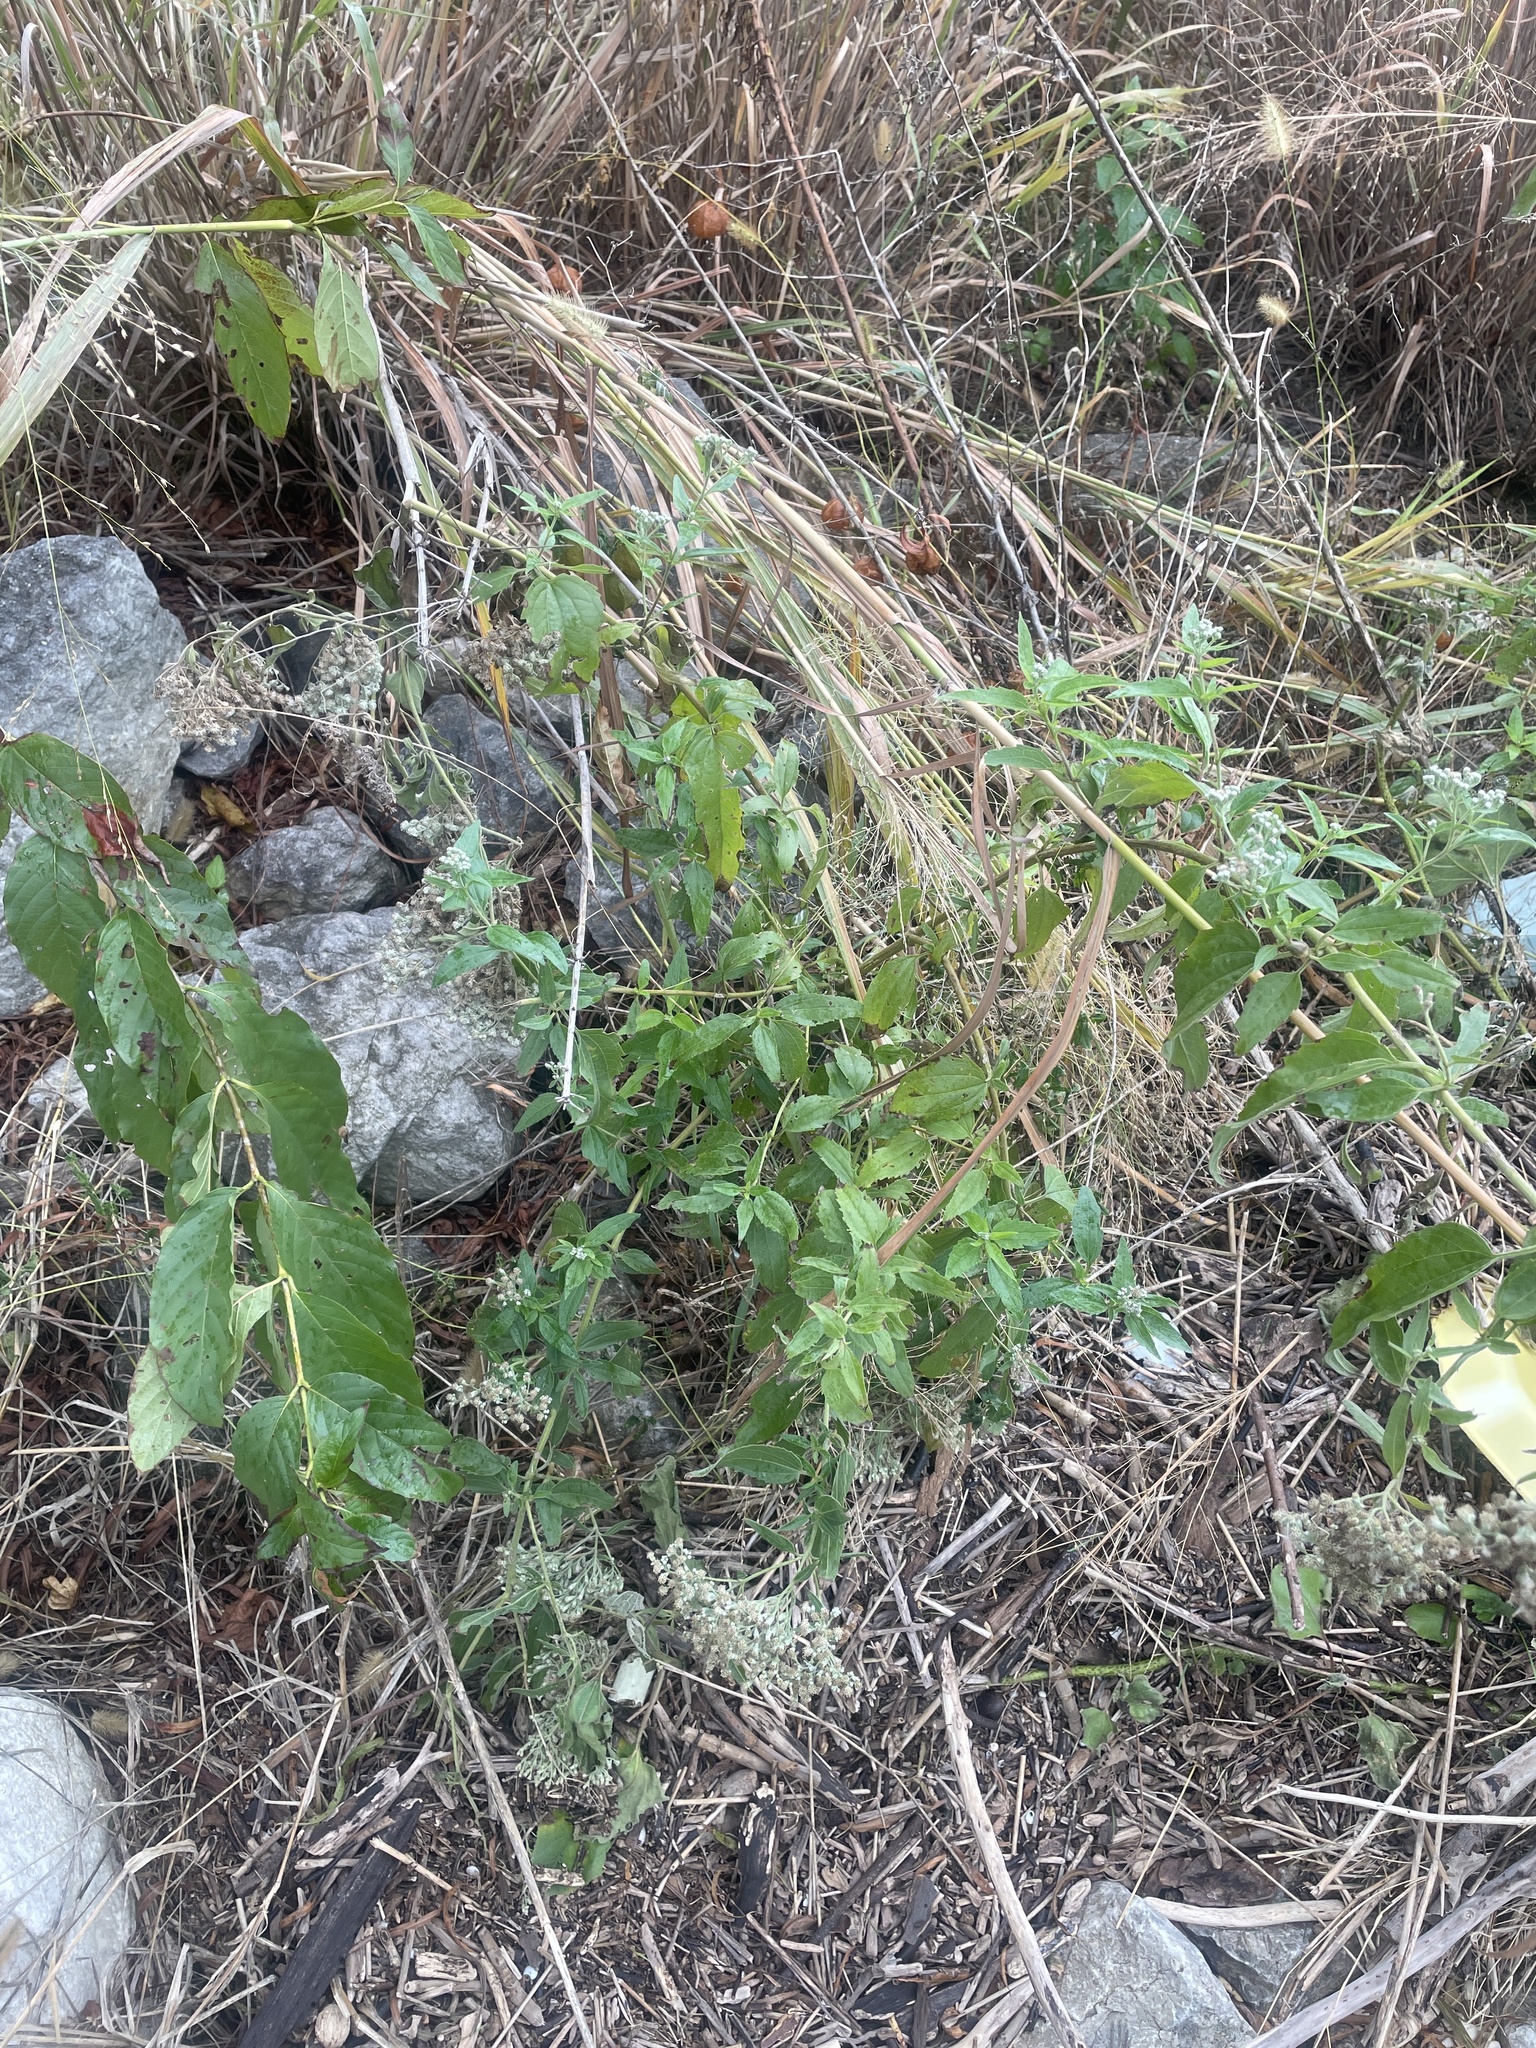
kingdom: Plantae
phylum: Tracheophyta
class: Magnoliopsida
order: Asterales
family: Asteraceae
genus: Eupatorium
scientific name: Eupatorium serotinum
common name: Late boneset
